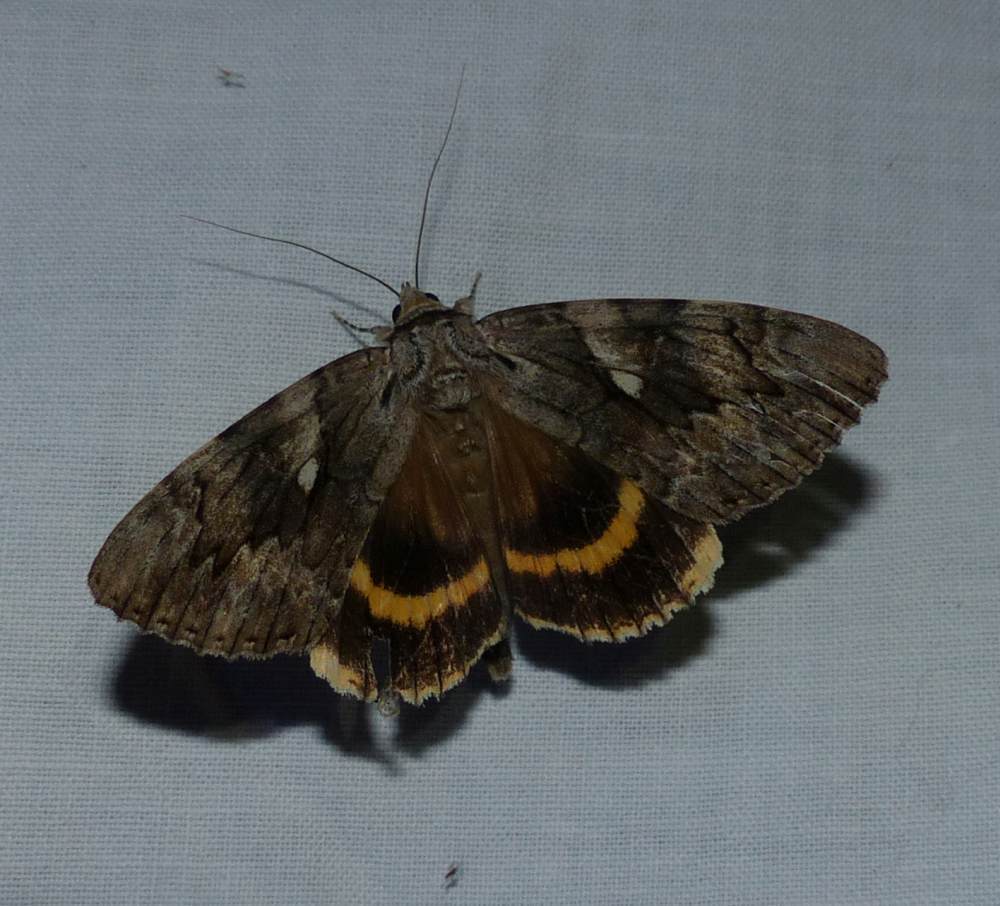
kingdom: Animalia
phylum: Arthropoda
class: Insecta
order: Lepidoptera
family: Erebidae
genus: Catocala
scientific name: Catocala cerogama
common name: Yellow banded underwing
